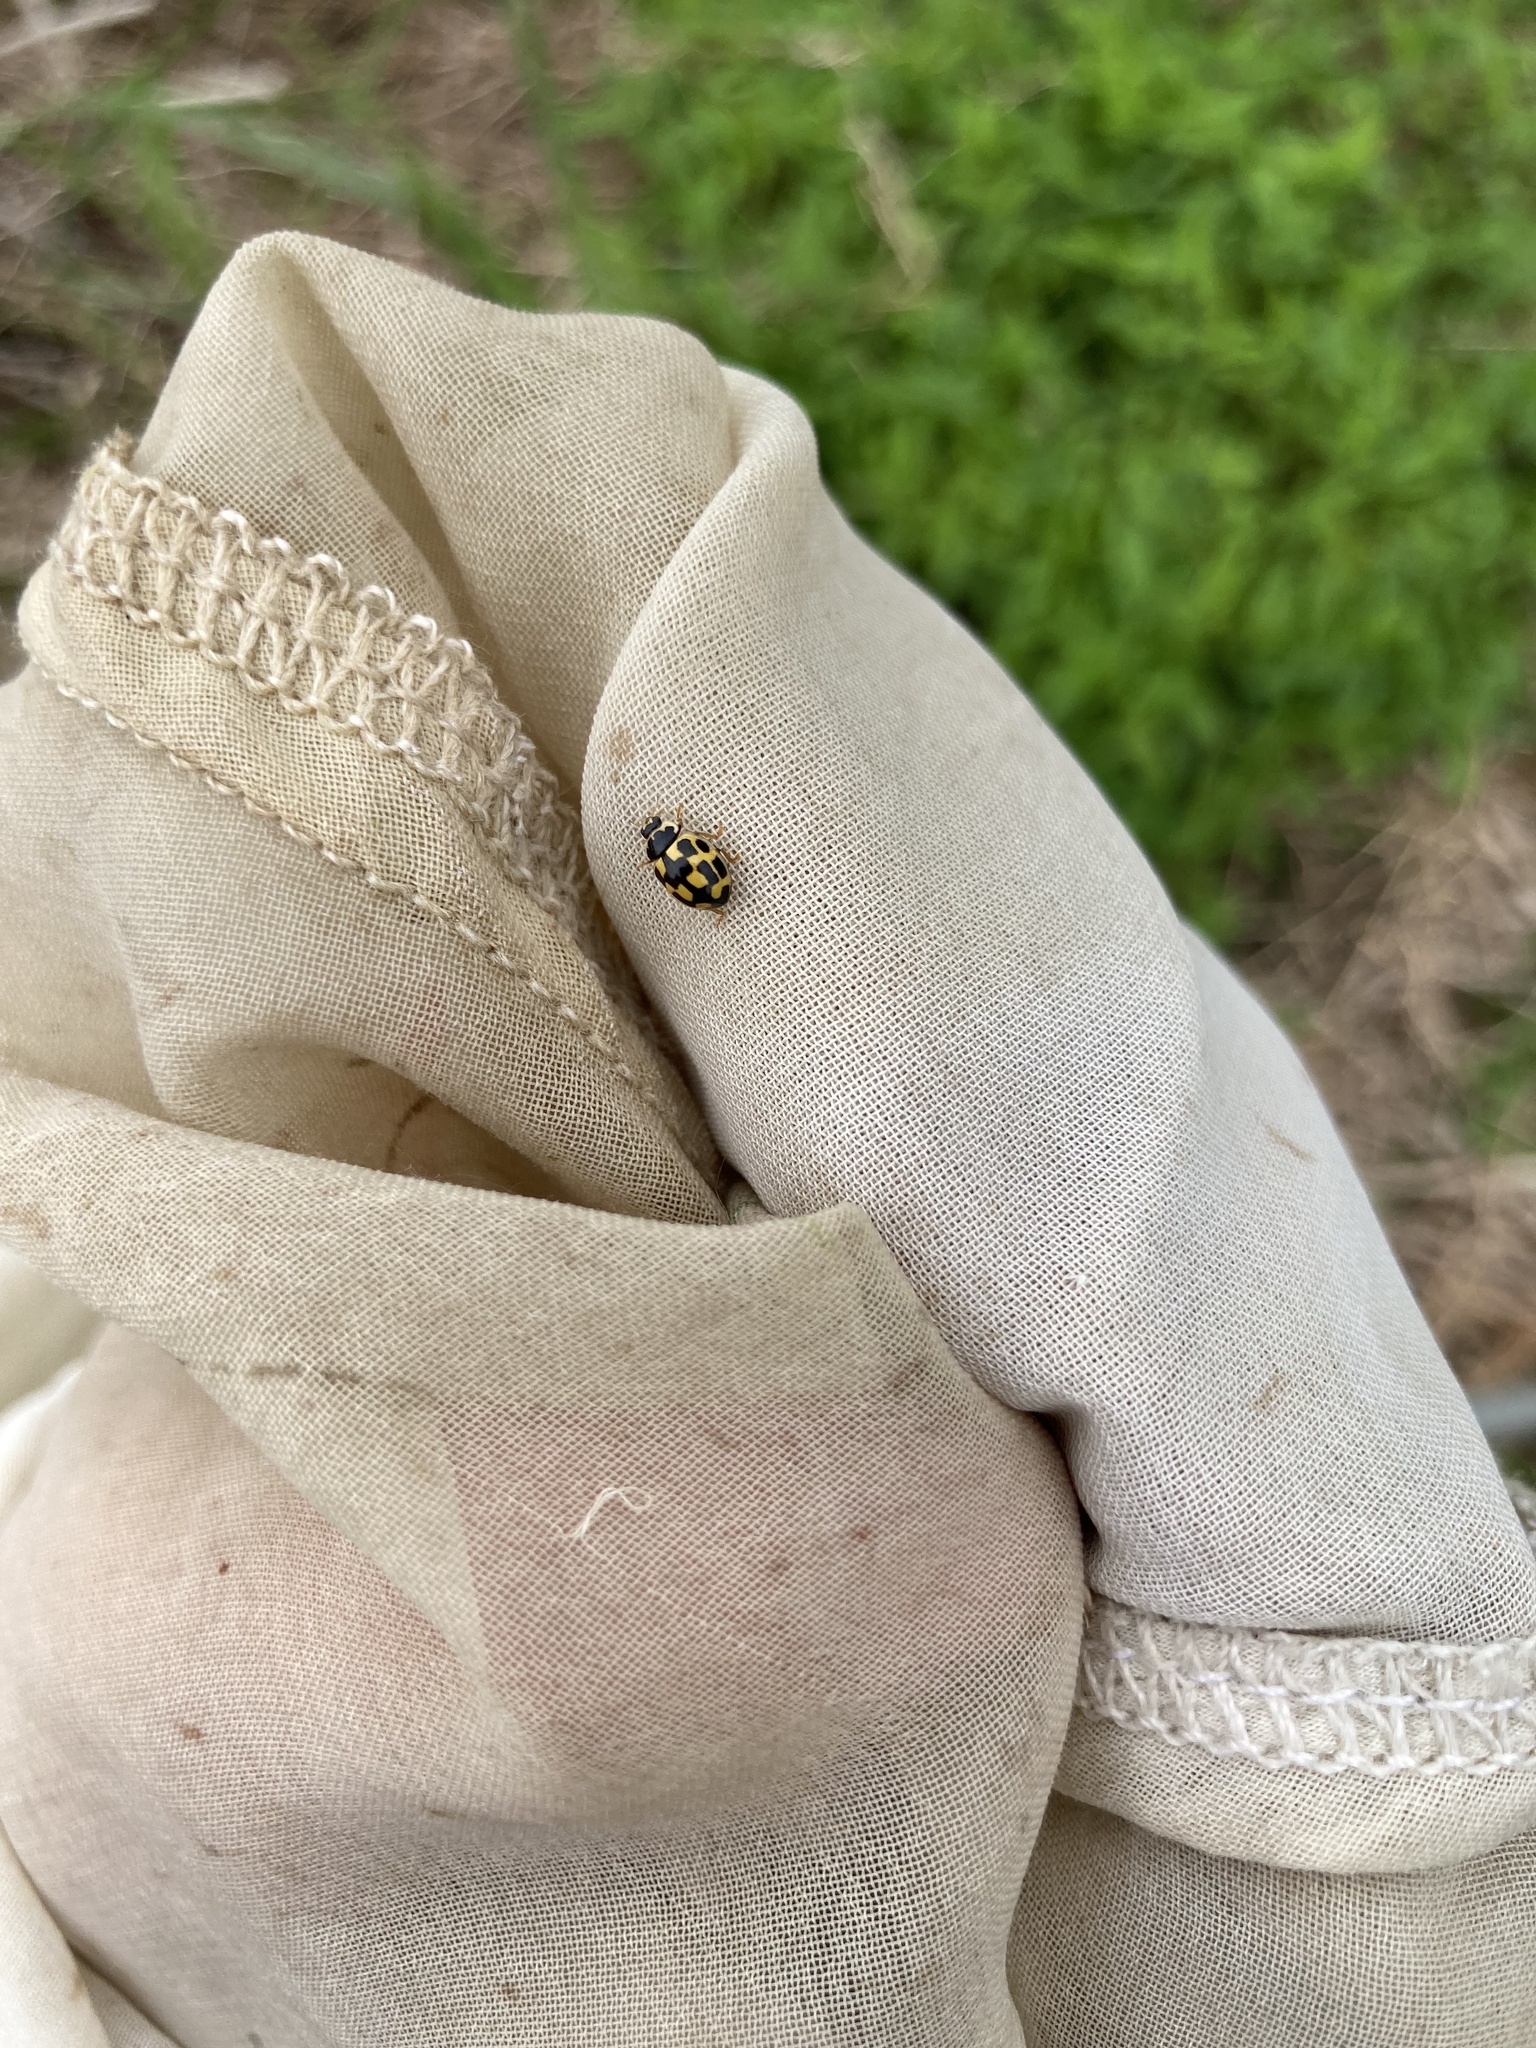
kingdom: Animalia
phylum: Arthropoda
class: Insecta
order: Coleoptera
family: Coccinellidae
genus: Propylaea
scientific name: Propylaea quatuordecimpunctata
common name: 14-spotted ladybird beetle
